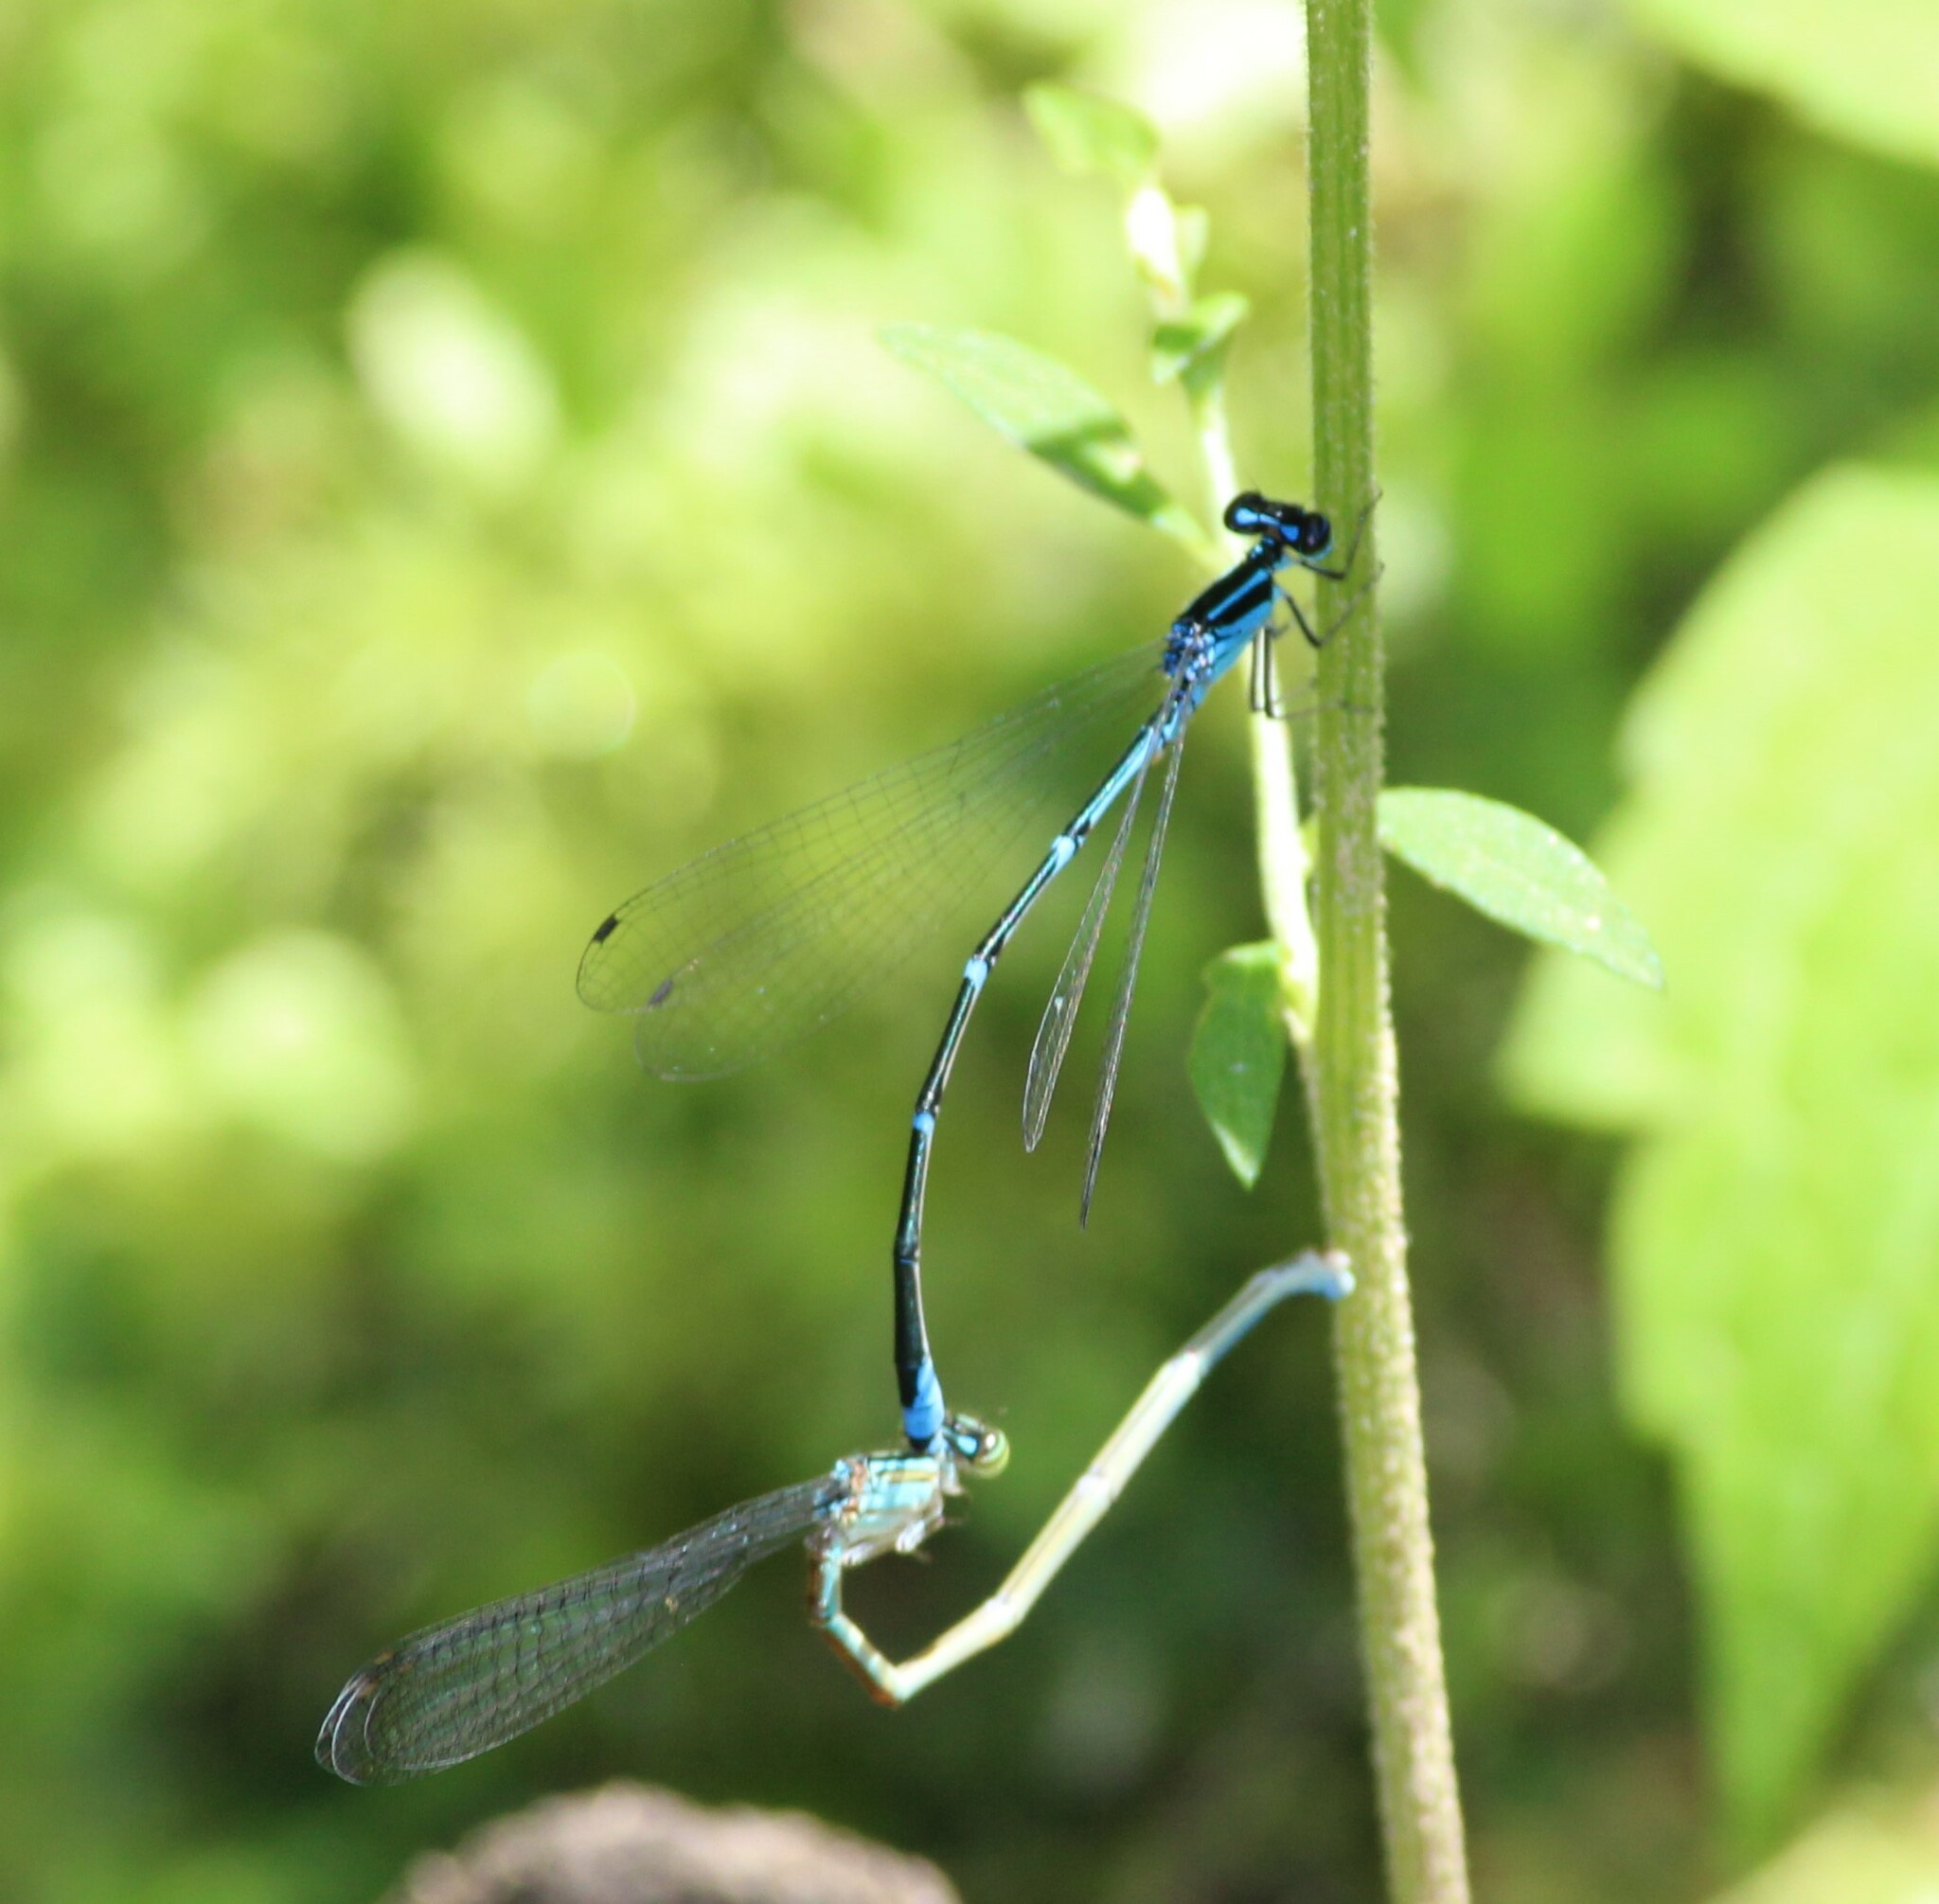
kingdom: Animalia
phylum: Arthropoda
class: Insecta
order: Odonata
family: Coenagrionidae
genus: Enallagma
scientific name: Enallagma exsulans
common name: Stream bluet
